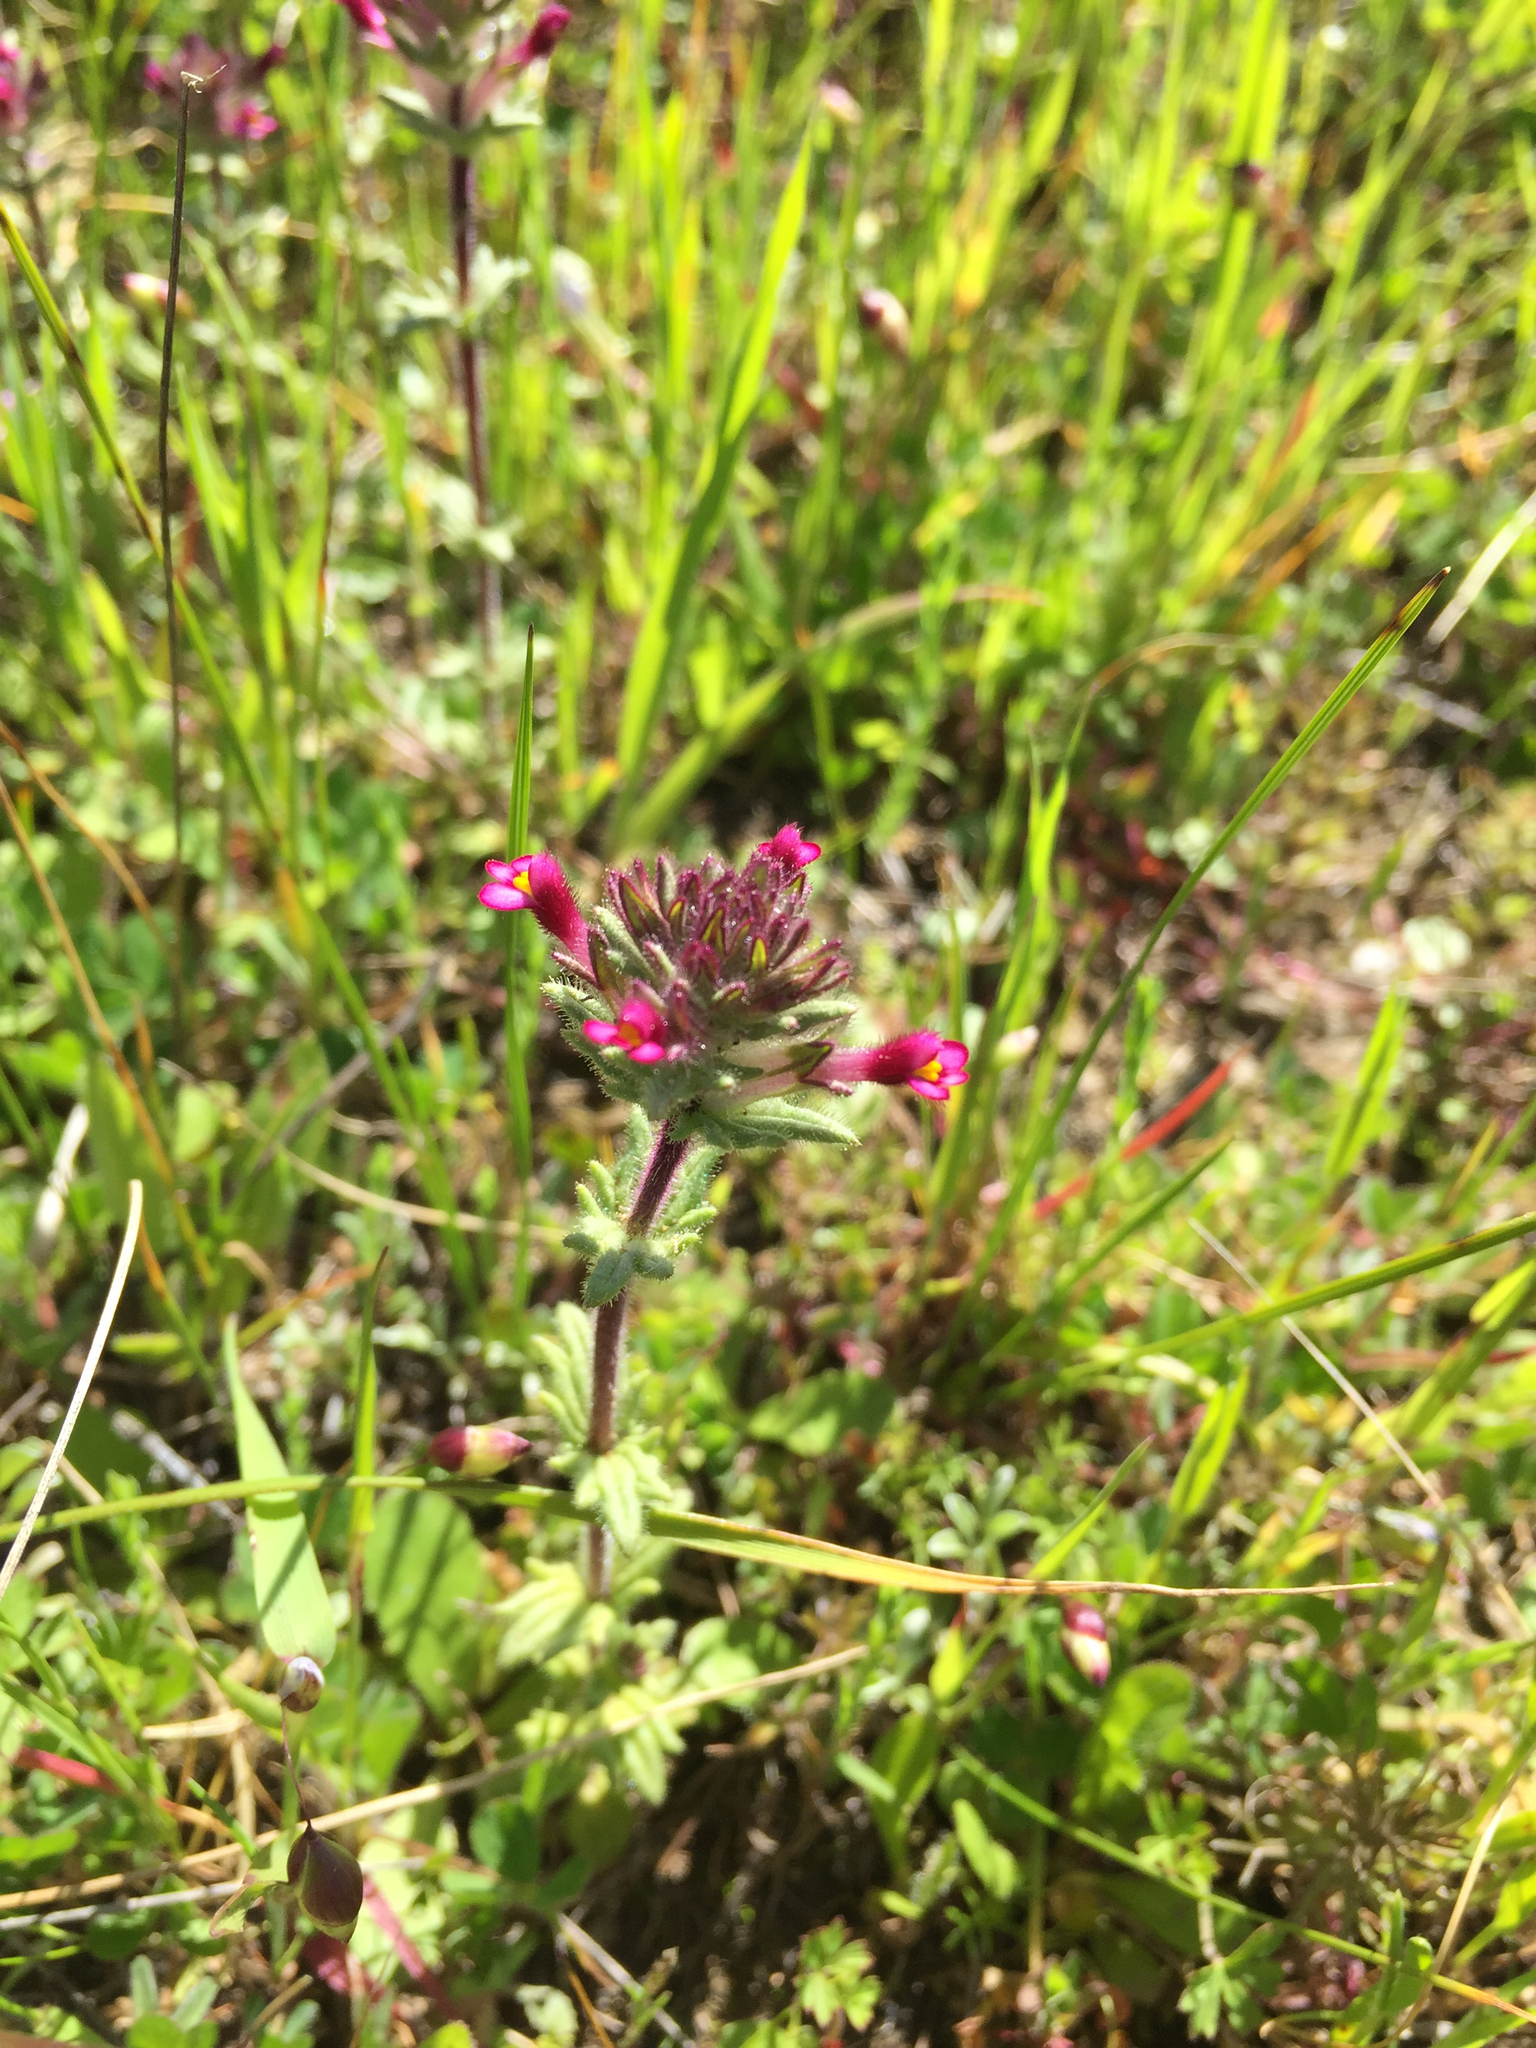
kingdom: Plantae
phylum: Tracheophyta
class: Magnoliopsida
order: Lamiales
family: Orobanchaceae
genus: Parentucellia
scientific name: Parentucellia latifolia
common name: Broadleaf glandweed
